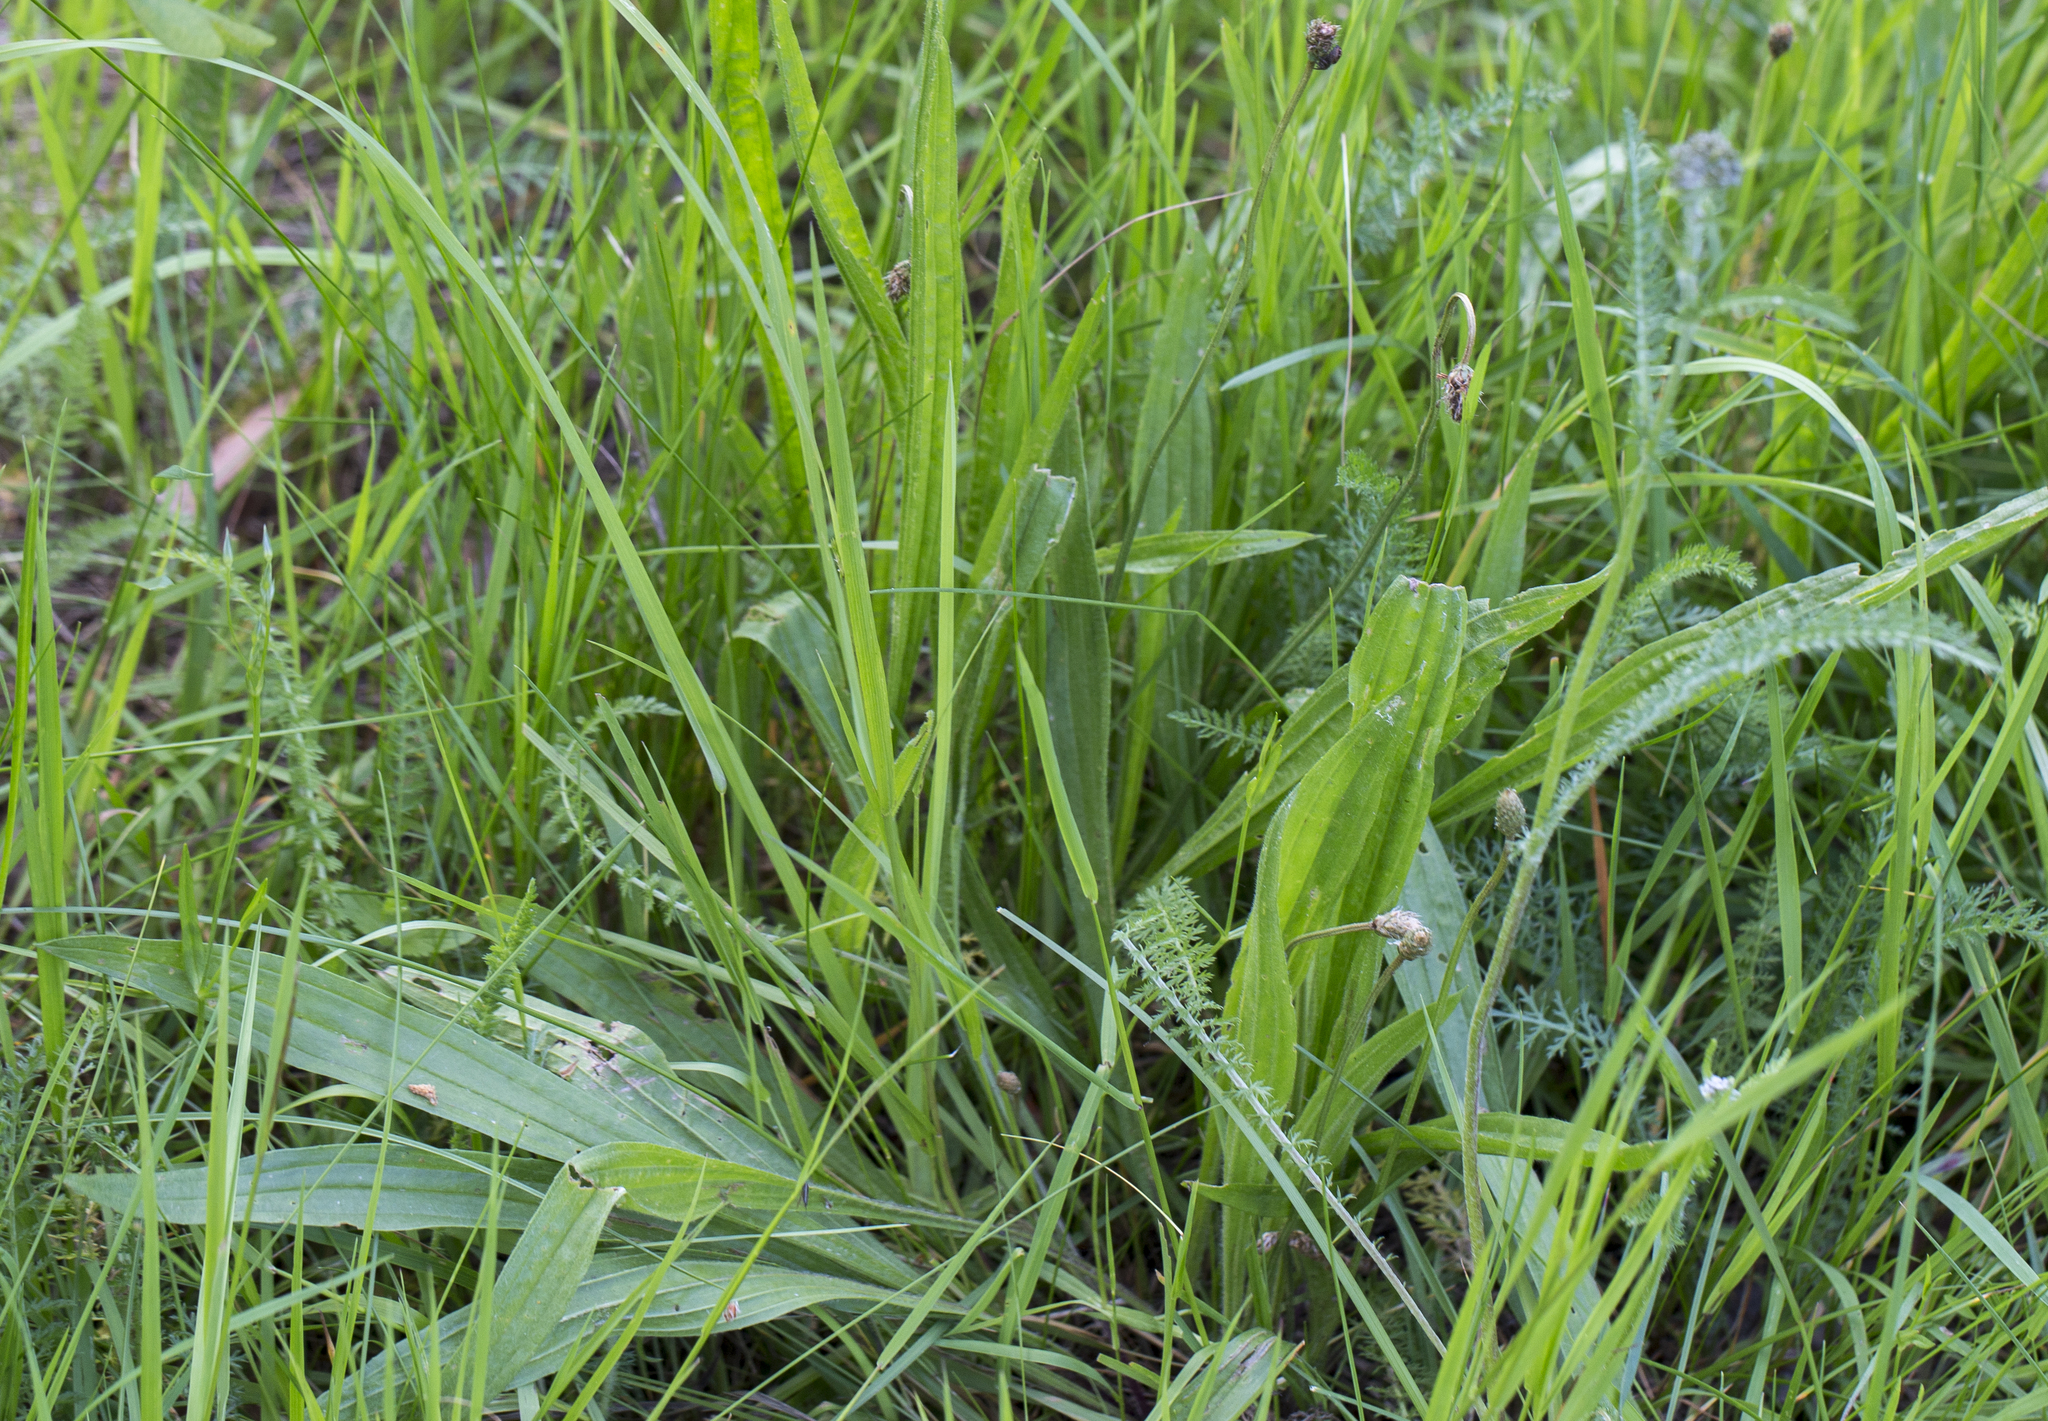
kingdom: Plantae
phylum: Tracheophyta
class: Magnoliopsida
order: Lamiales
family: Plantaginaceae
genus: Plantago
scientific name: Plantago lanceolata
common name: Ribwort plantain
